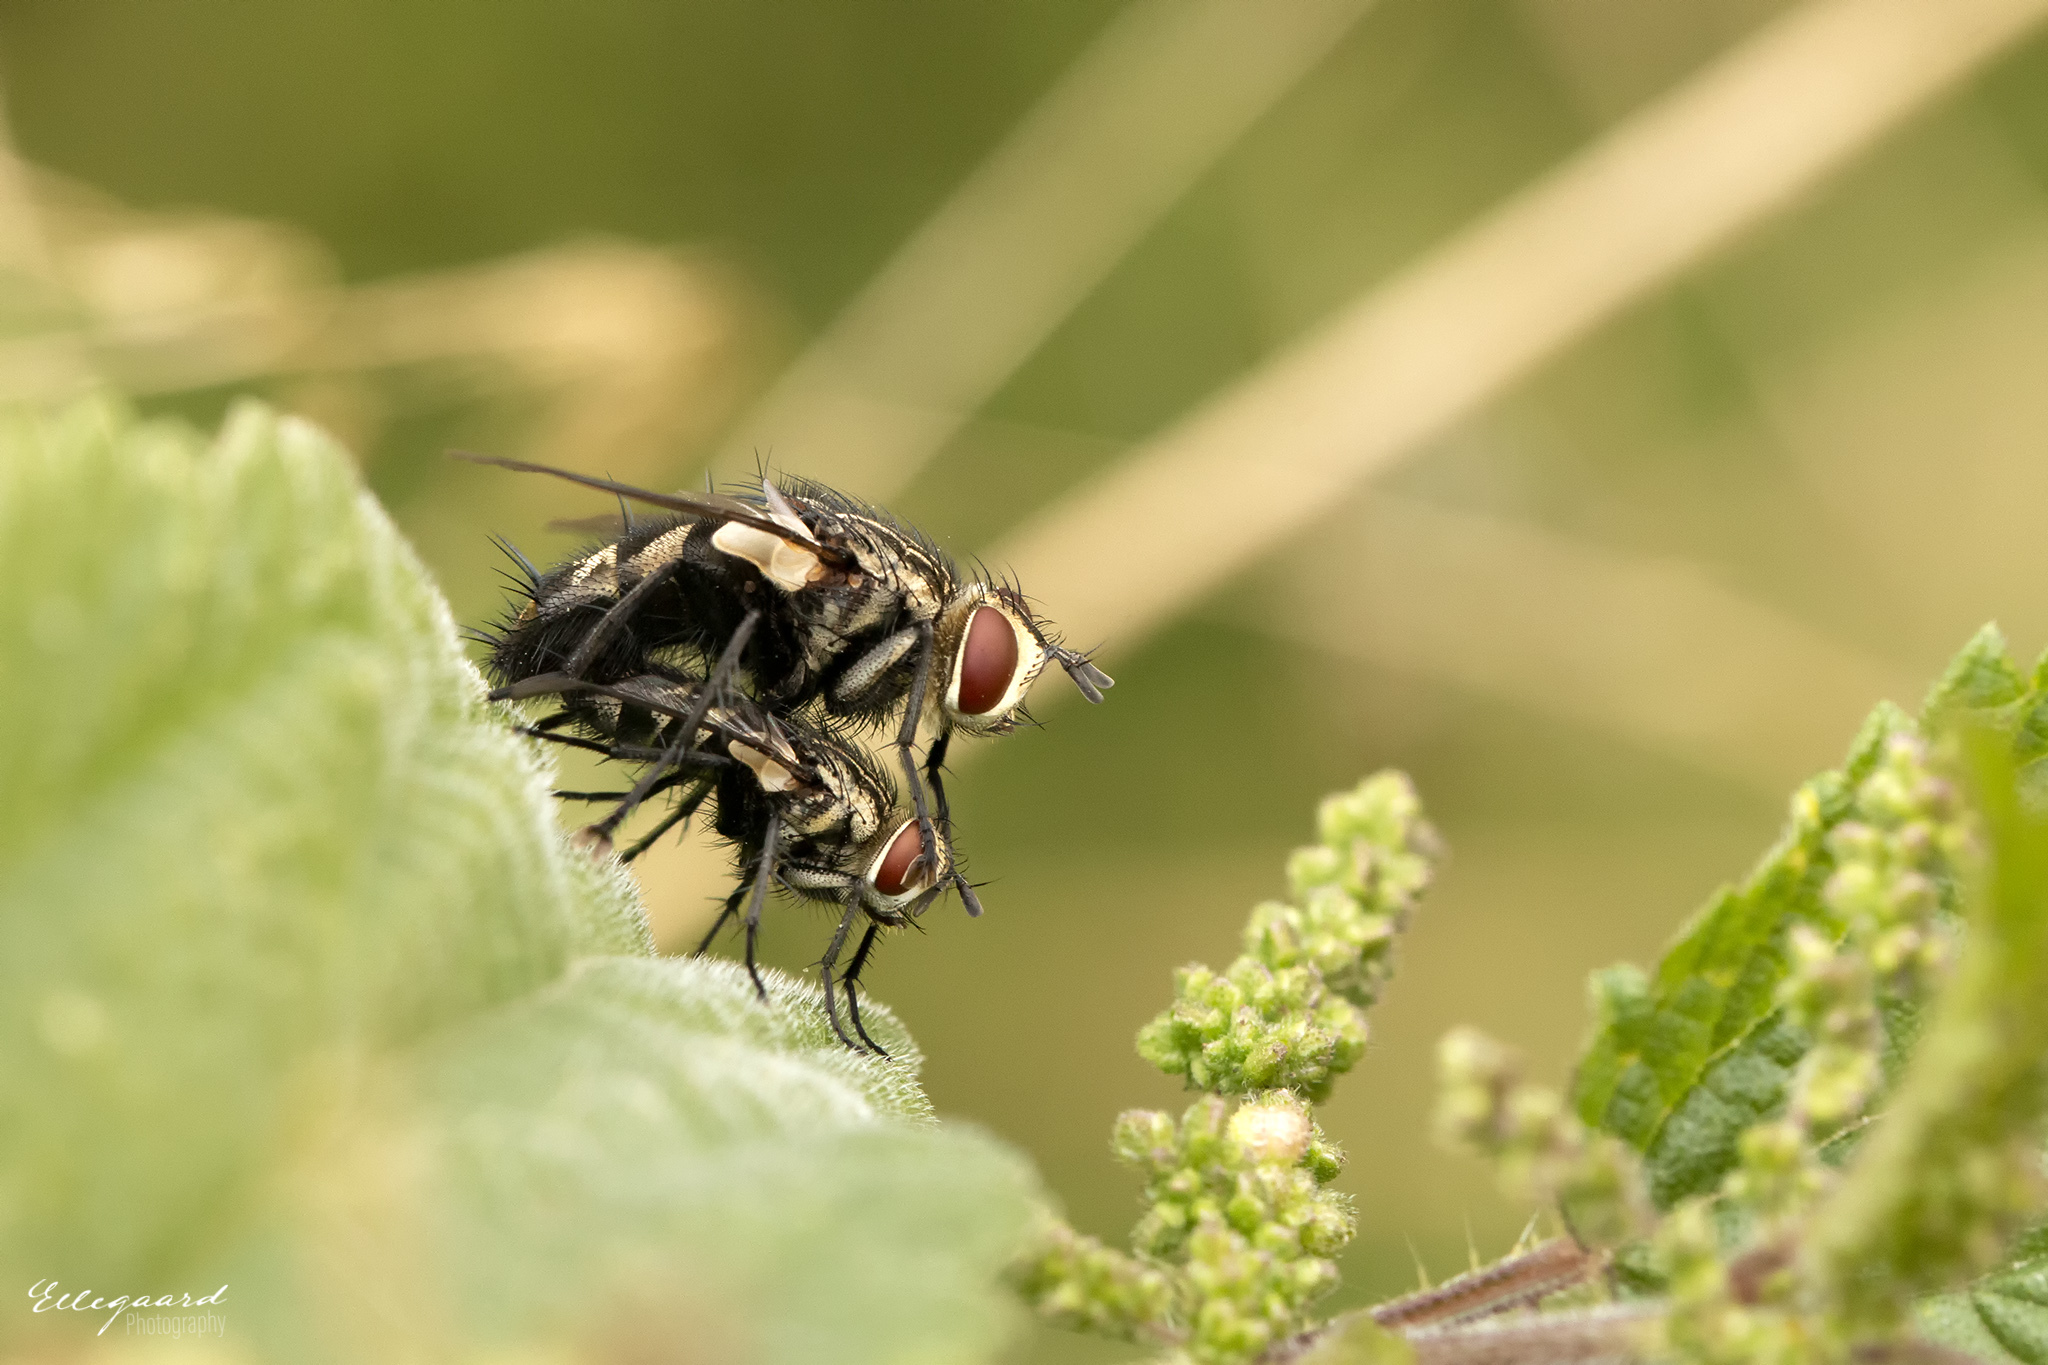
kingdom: Animalia
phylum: Arthropoda
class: Insecta
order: Diptera
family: Tachinidae
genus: Exorista
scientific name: Exorista larvarum
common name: Parasitic fly
